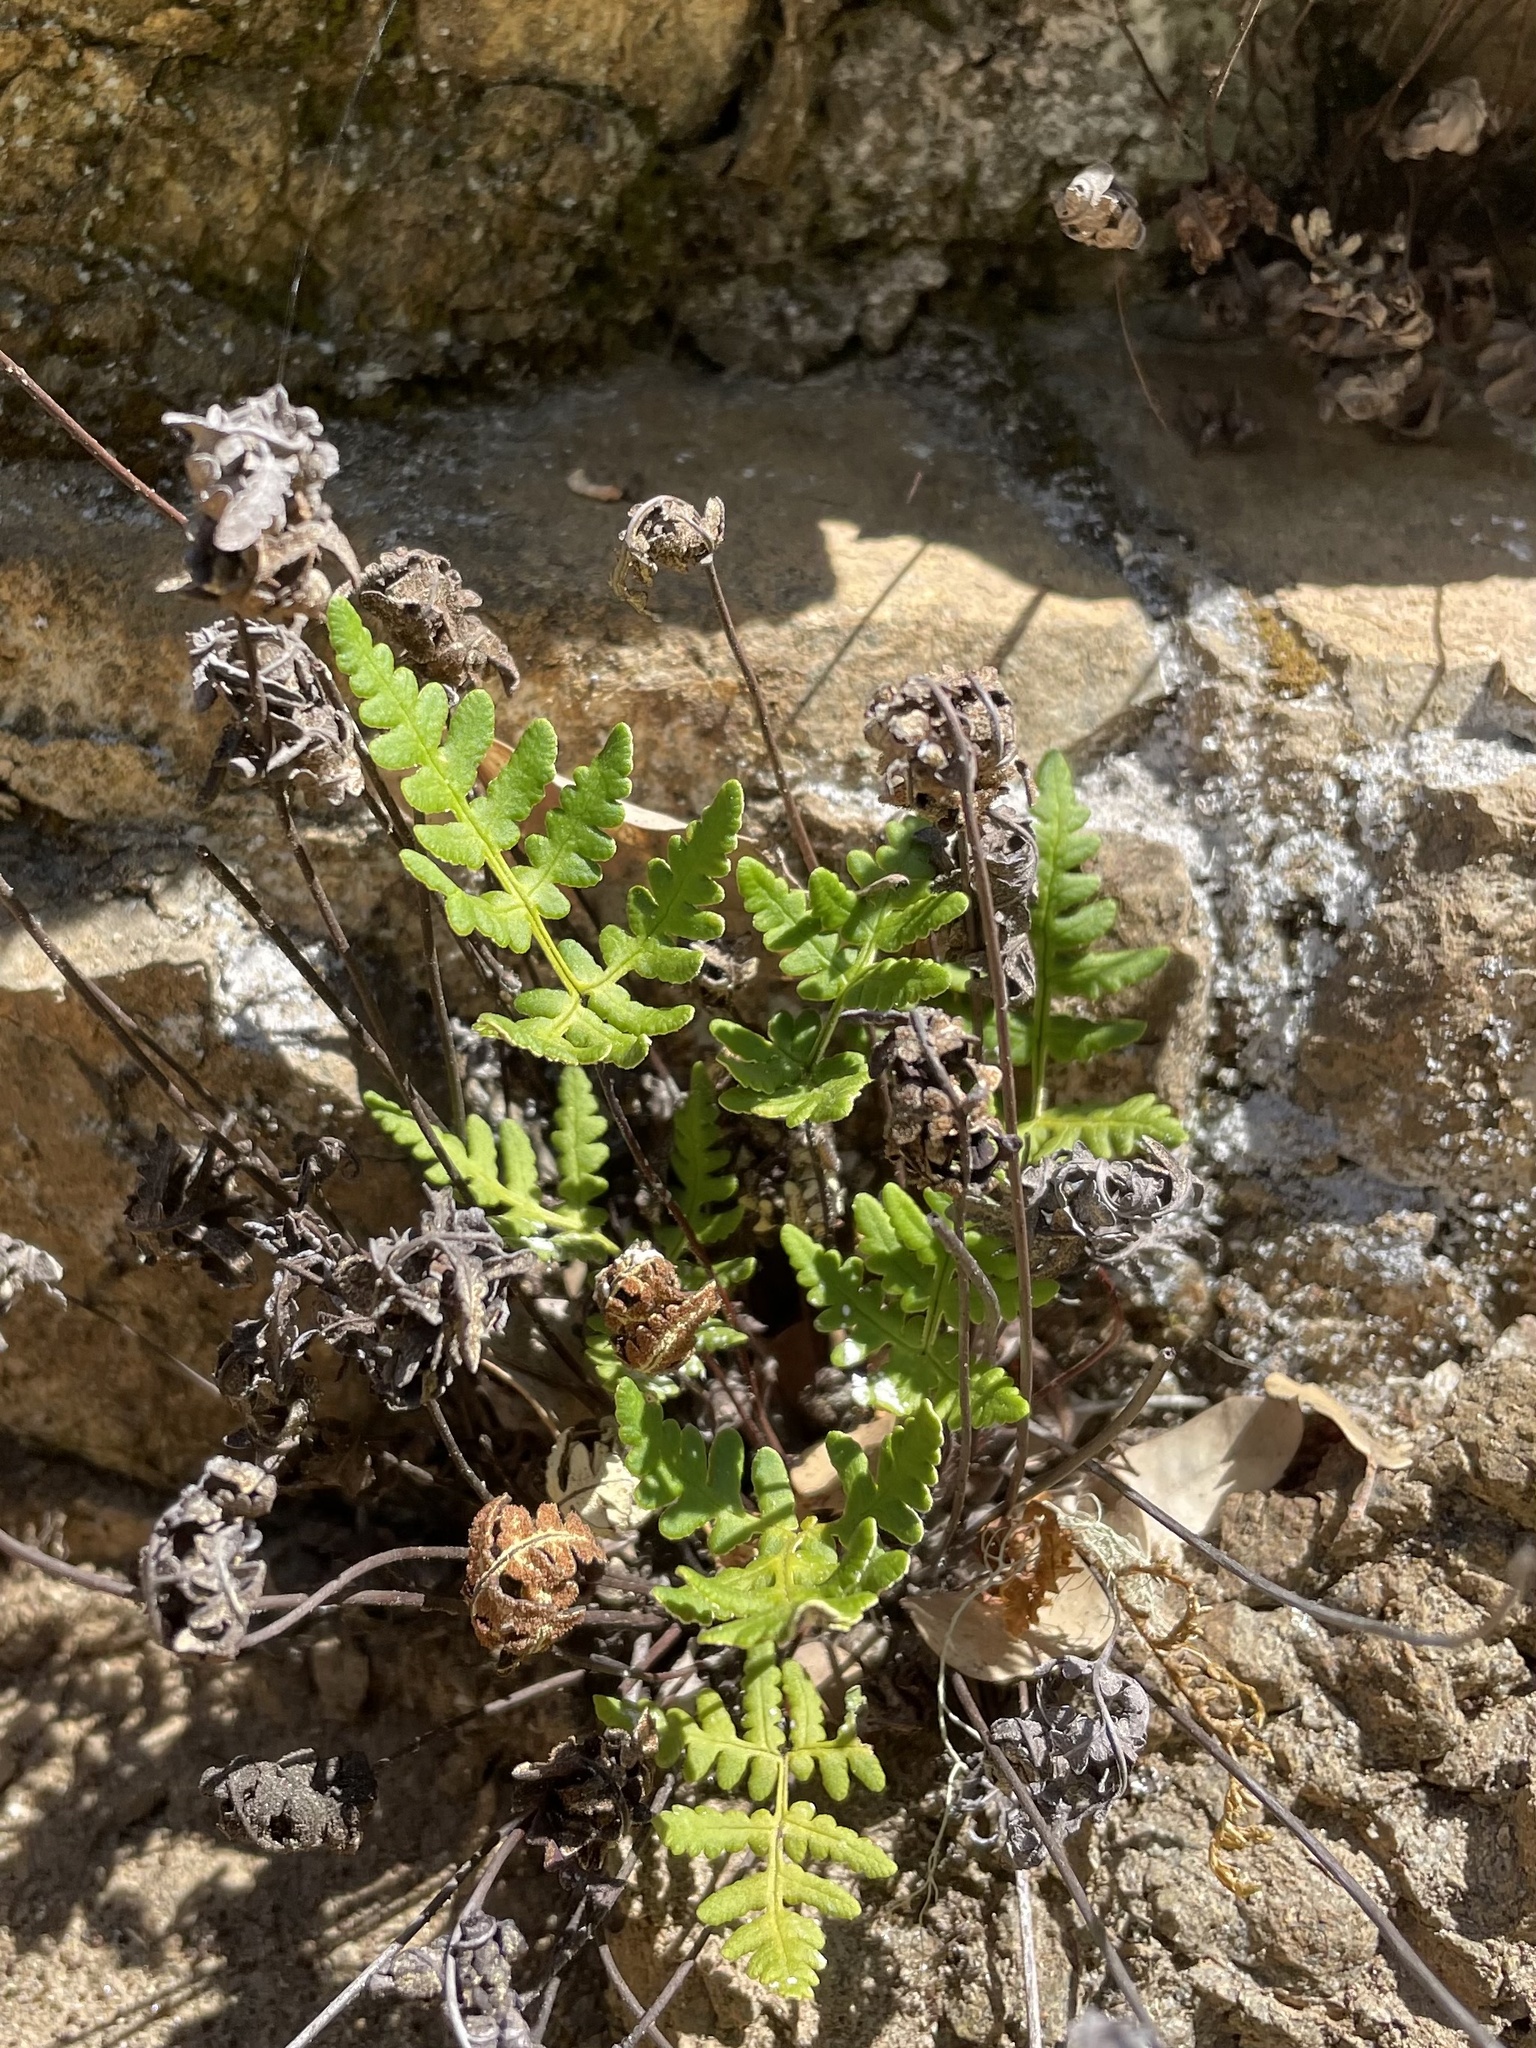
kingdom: Plantae
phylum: Tracheophyta
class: Polypodiopsida
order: Polypodiales
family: Pteridaceae
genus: Pentagramma
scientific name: Pentagramma triangularis
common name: Gold fern
